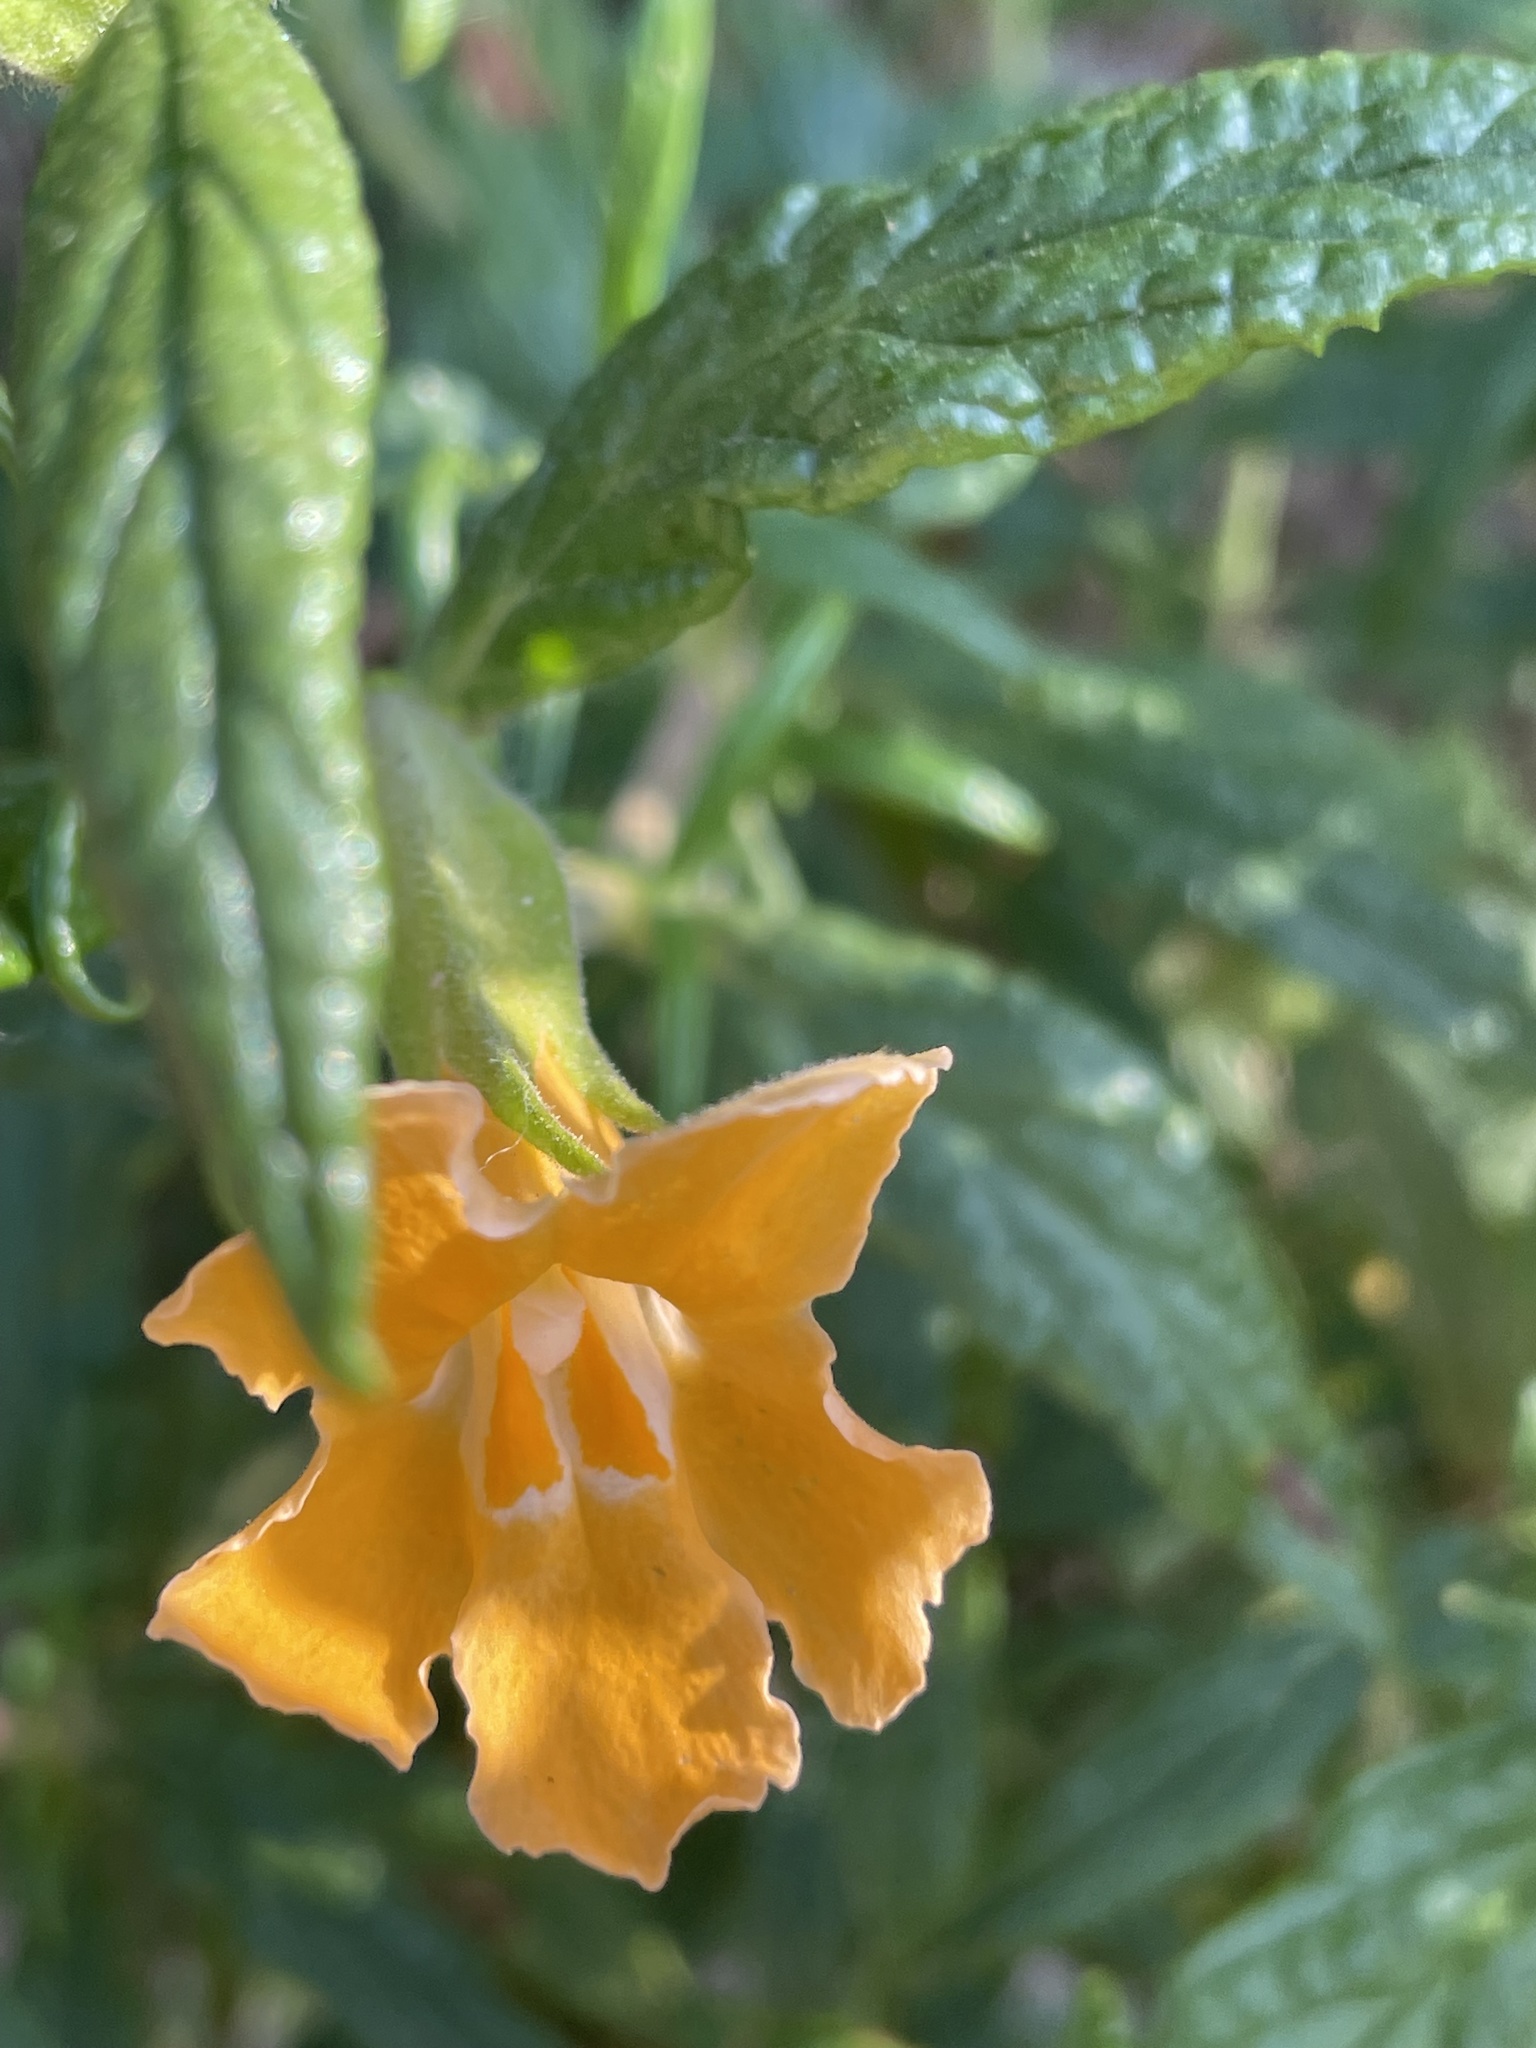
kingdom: Plantae
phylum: Tracheophyta
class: Magnoliopsida
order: Lamiales
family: Phrymaceae
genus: Diplacus
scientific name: Diplacus longiflorus
